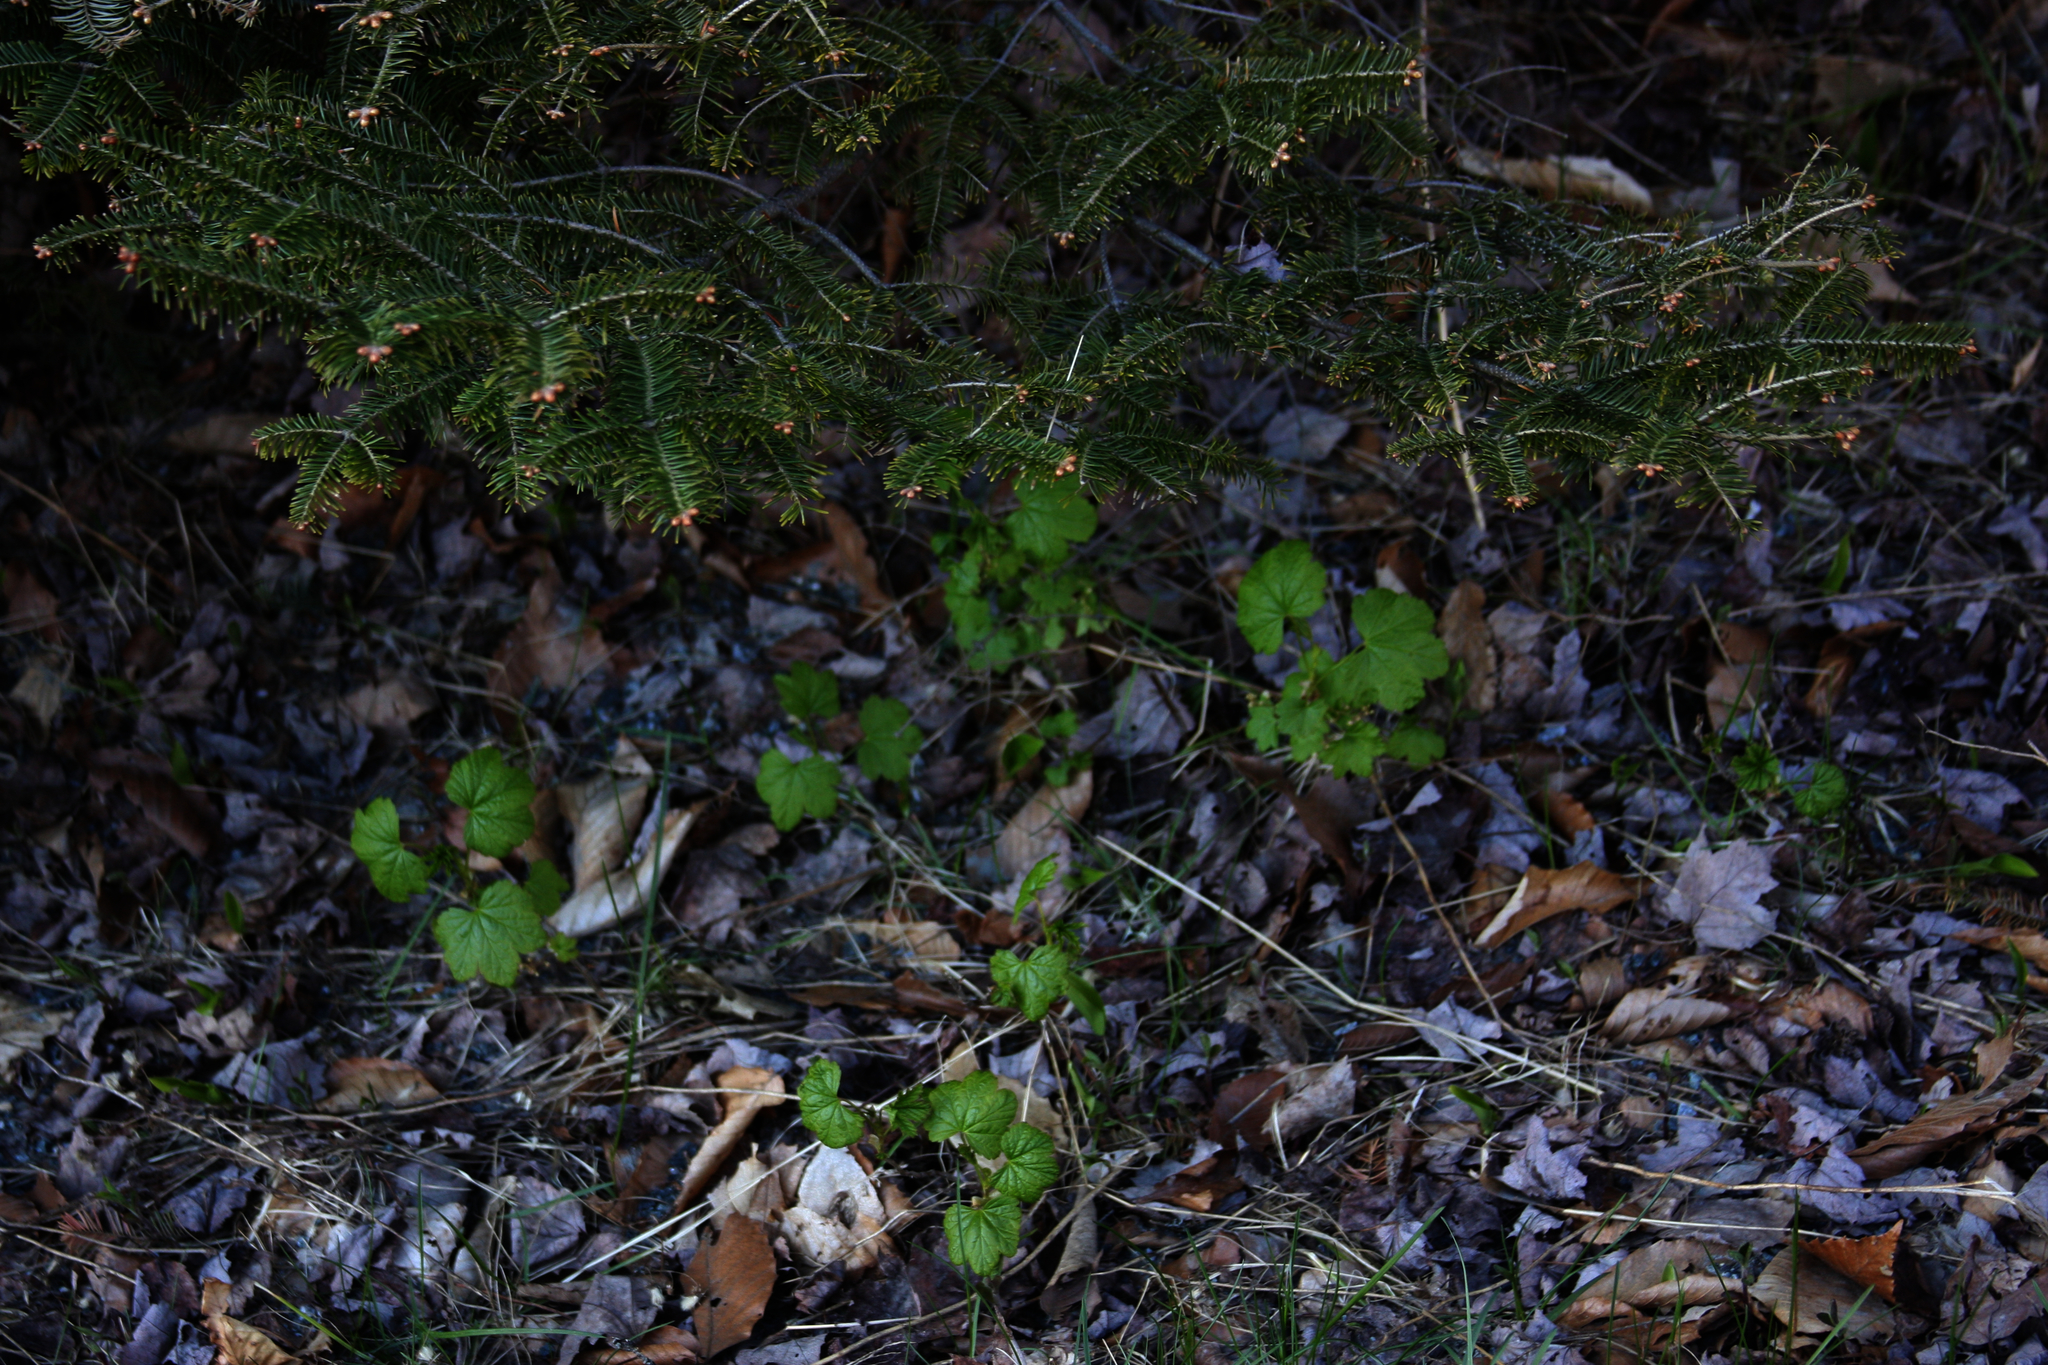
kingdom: Plantae
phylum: Tracheophyta
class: Pinopsida
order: Pinales
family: Pinaceae
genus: Abies
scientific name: Abies balsamea
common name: Balsam fir
